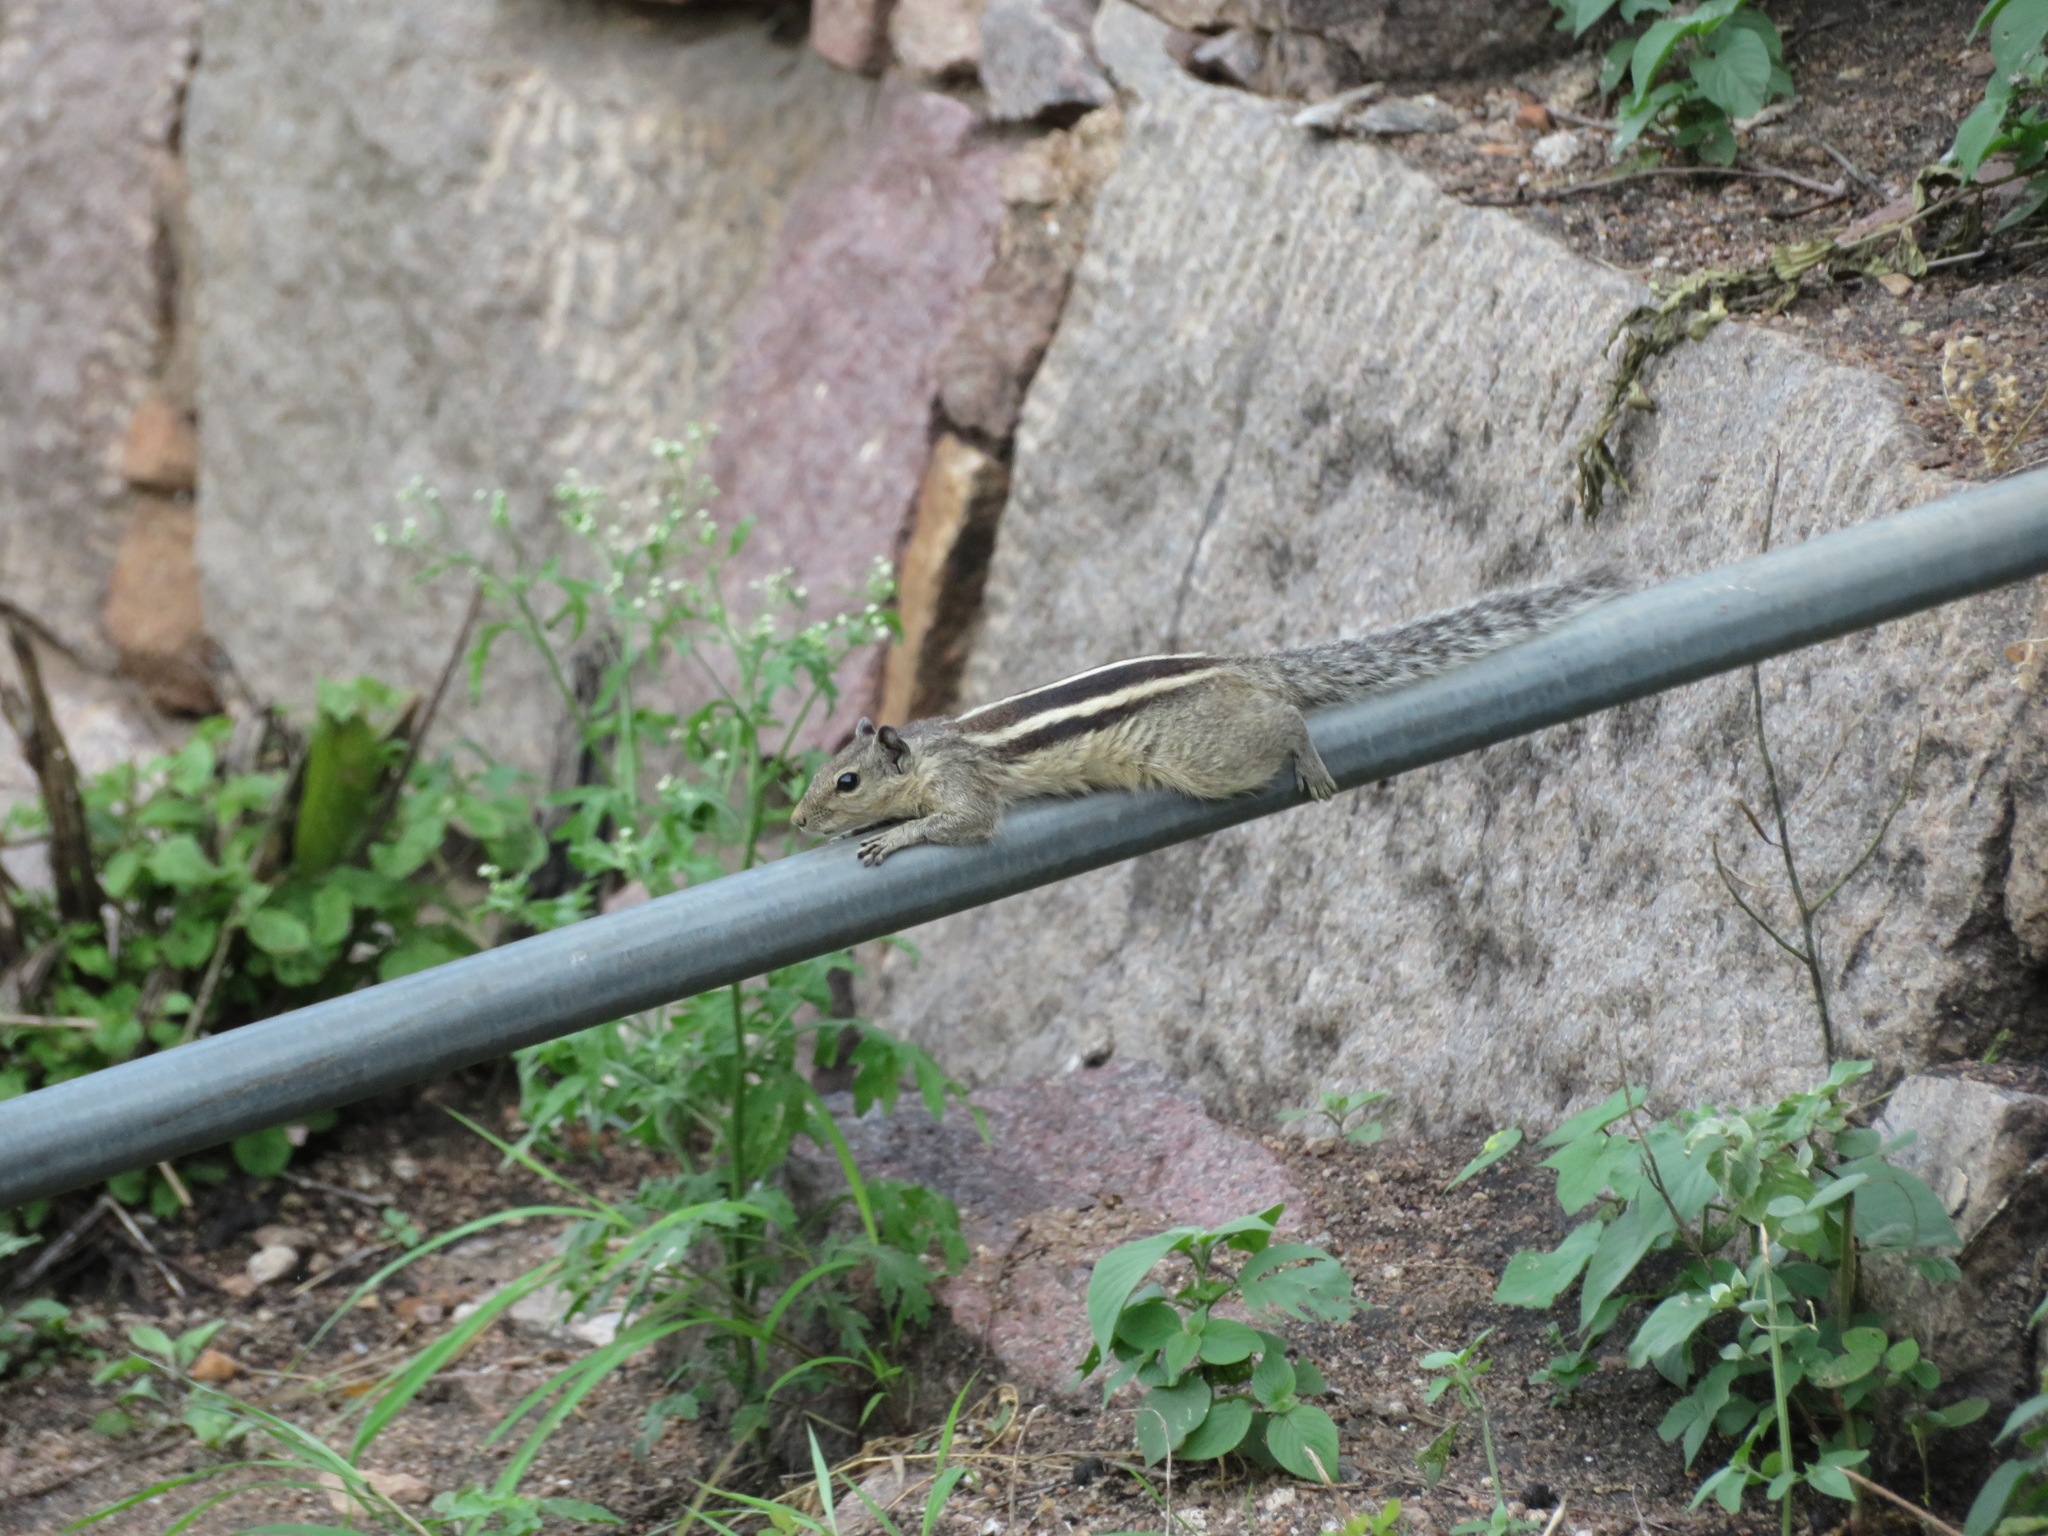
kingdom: Animalia
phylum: Chordata
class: Mammalia
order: Rodentia
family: Sciuridae
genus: Funambulus
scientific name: Funambulus palmarum
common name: Indian palm squirrel
